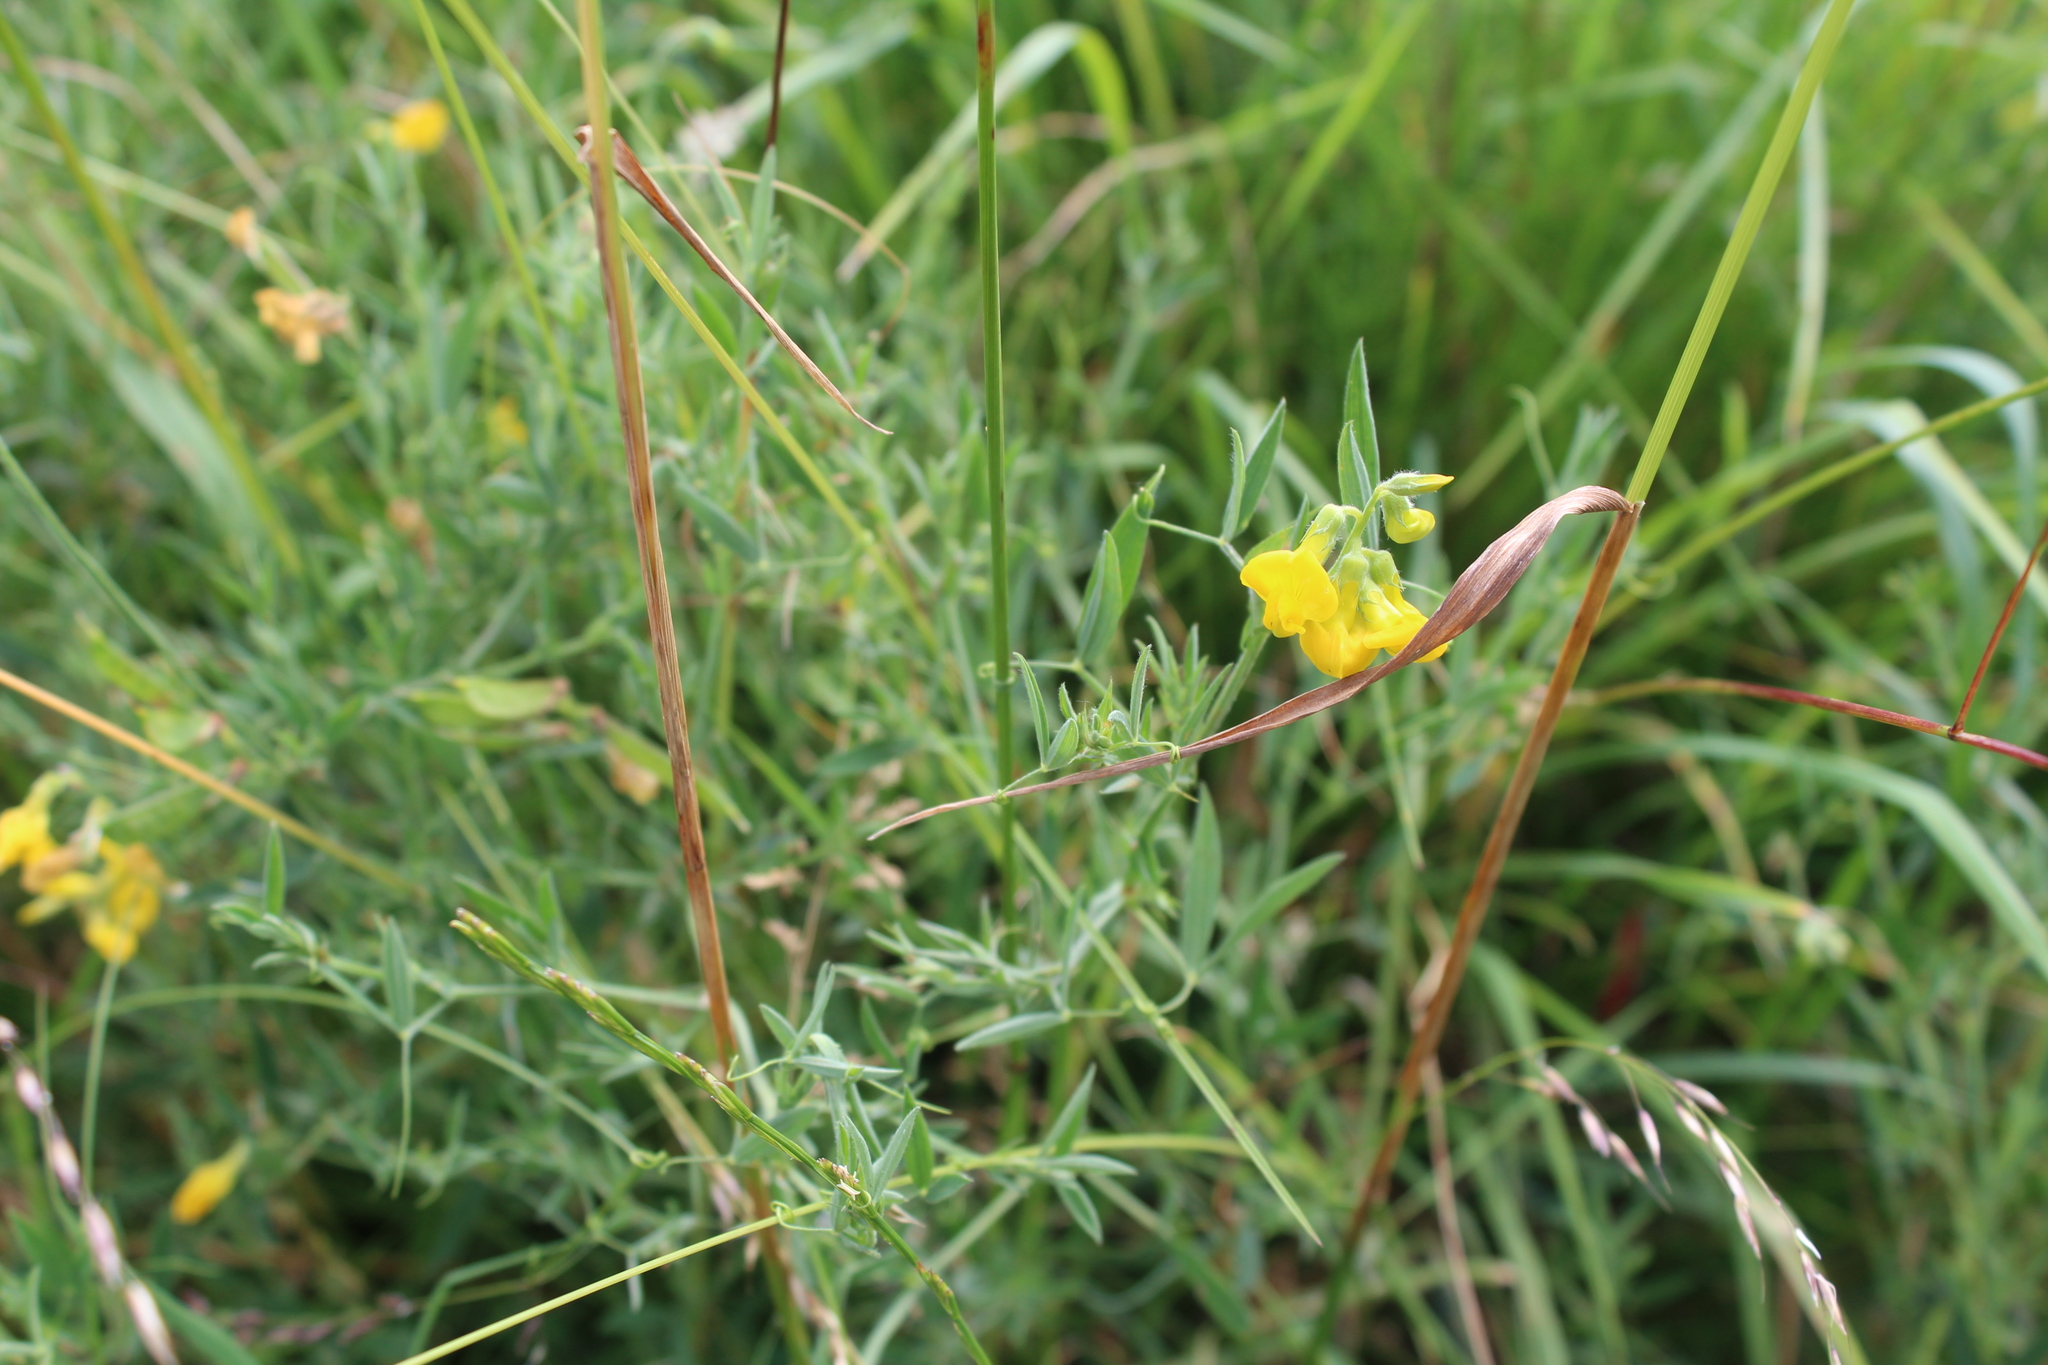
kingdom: Plantae
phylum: Tracheophyta
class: Magnoliopsida
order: Fabales
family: Fabaceae
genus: Lathyrus
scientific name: Lathyrus pratensis
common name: Meadow vetchling
